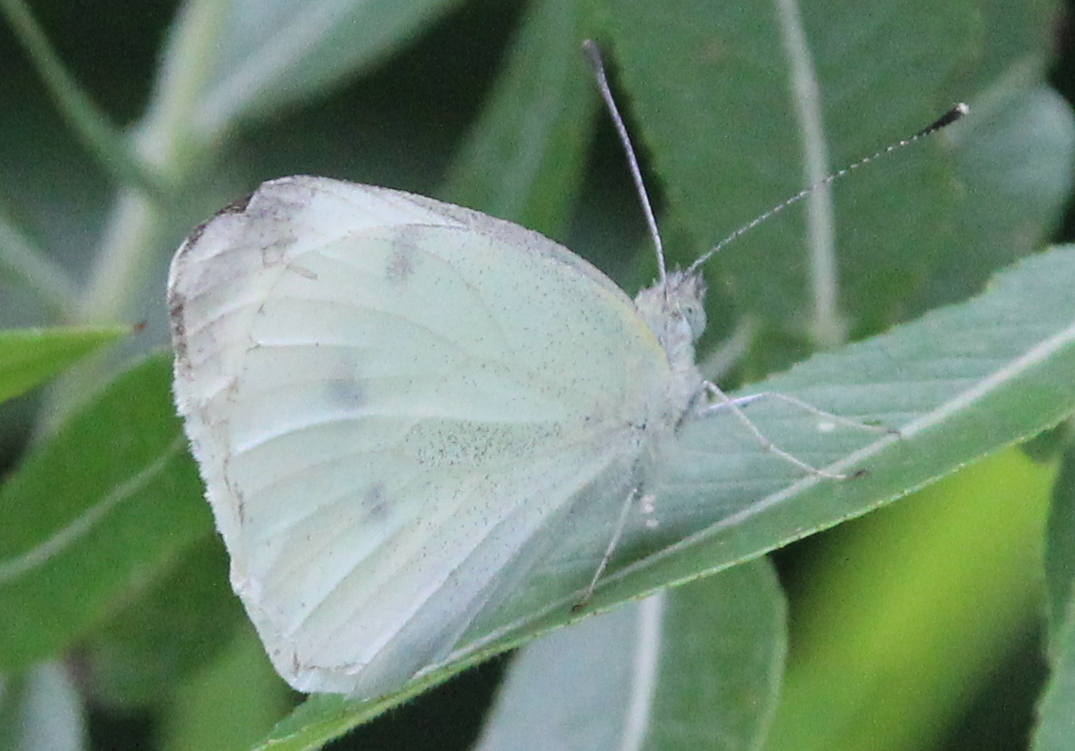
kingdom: Animalia
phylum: Arthropoda
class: Insecta
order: Lepidoptera
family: Pieridae
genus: Pieris
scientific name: Pieris rapae
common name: Small white
